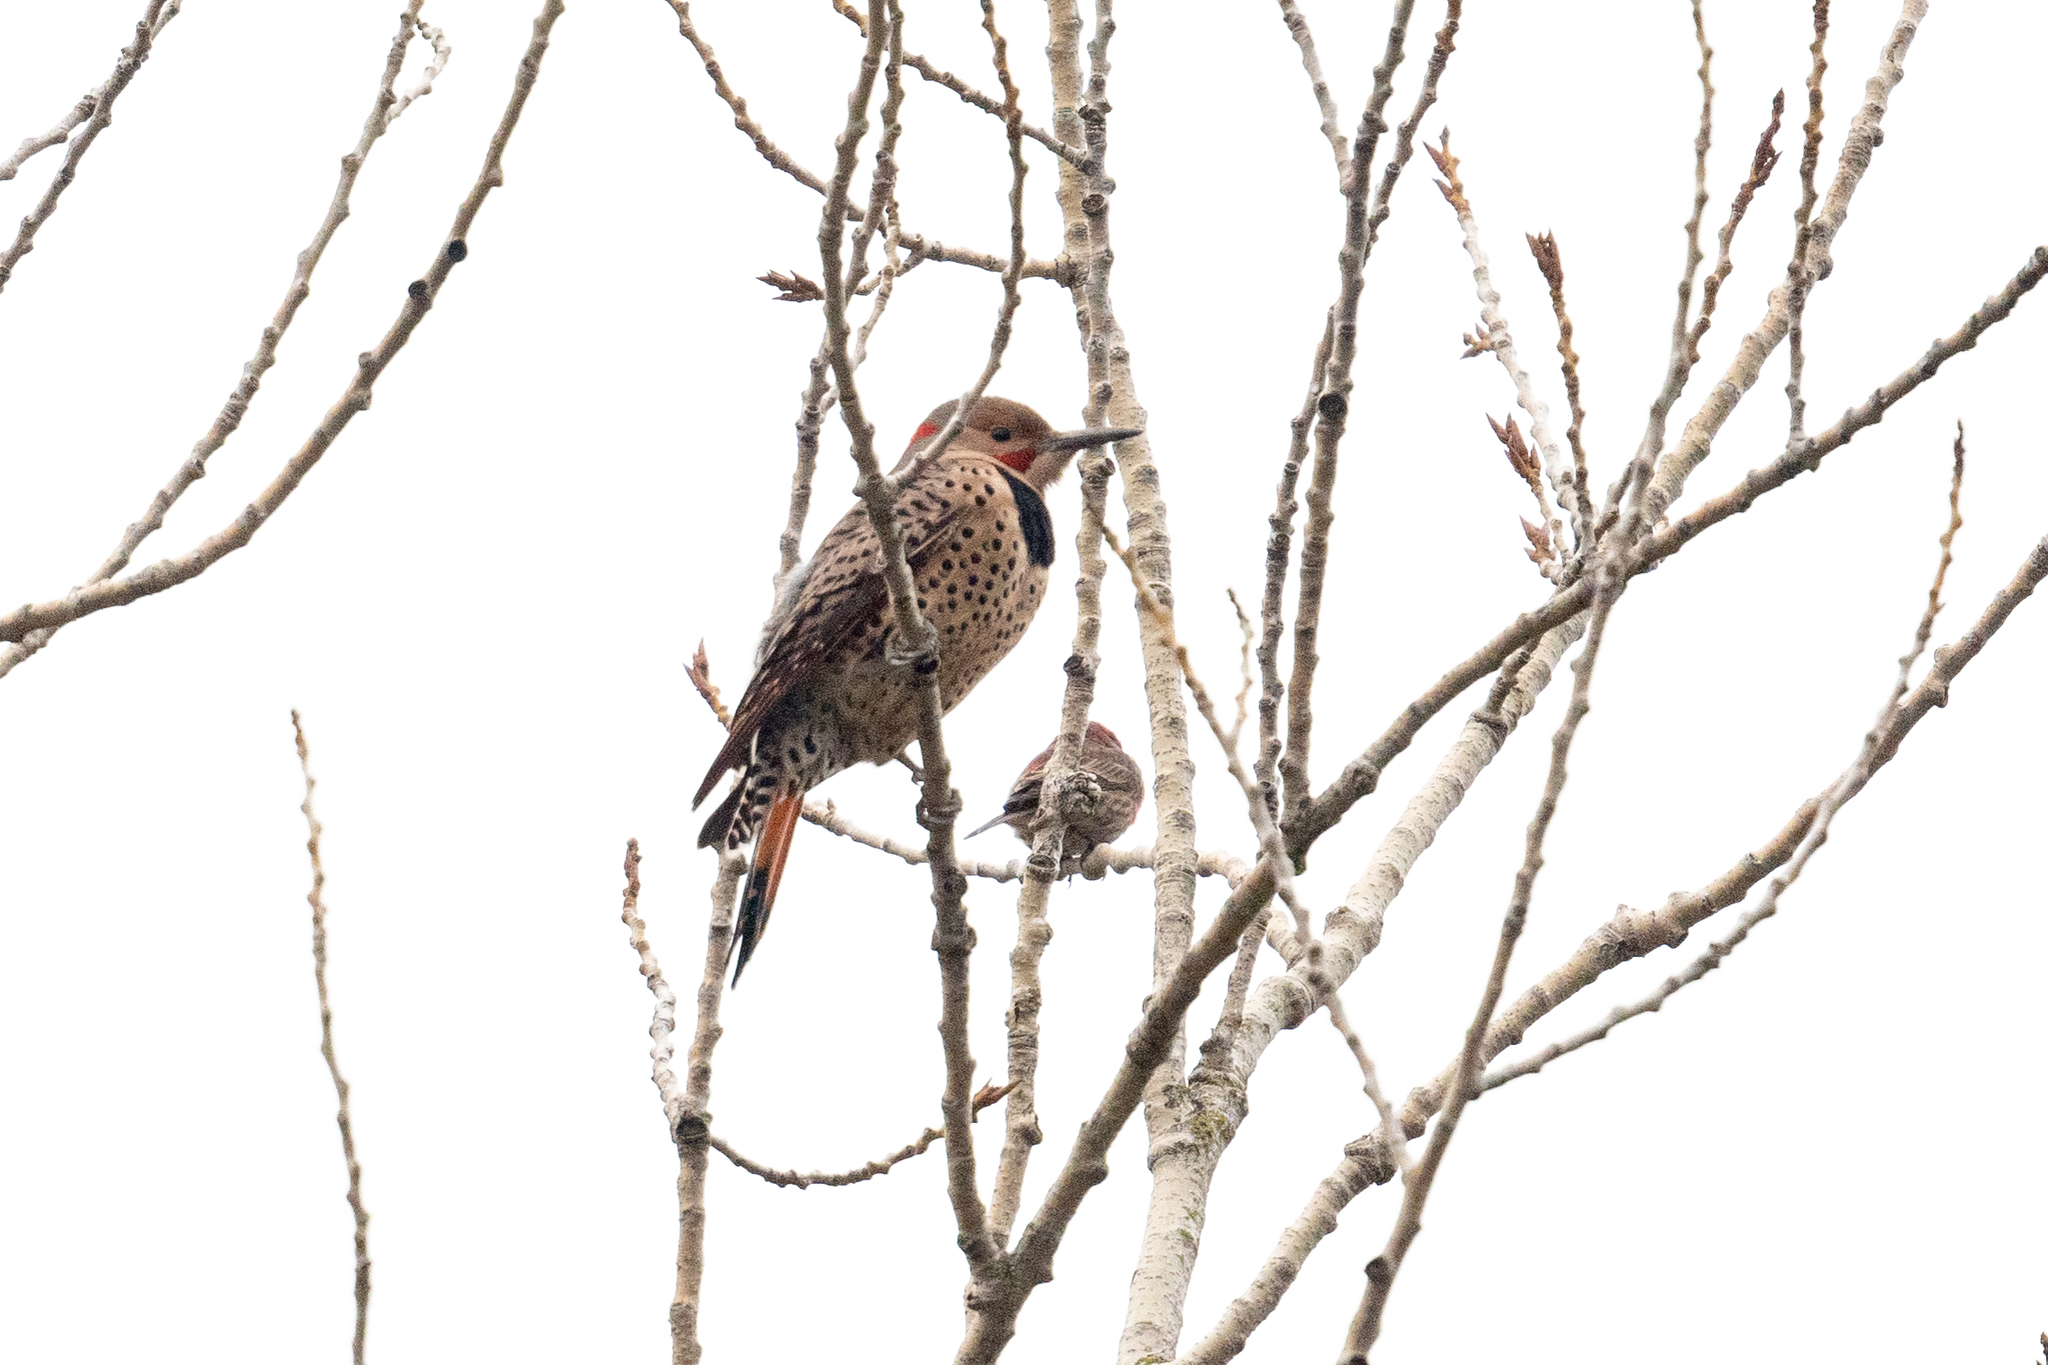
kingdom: Animalia
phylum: Chordata
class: Aves
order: Piciformes
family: Picidae
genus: Colaptes
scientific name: Colaptes auratus
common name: Northern flicker
